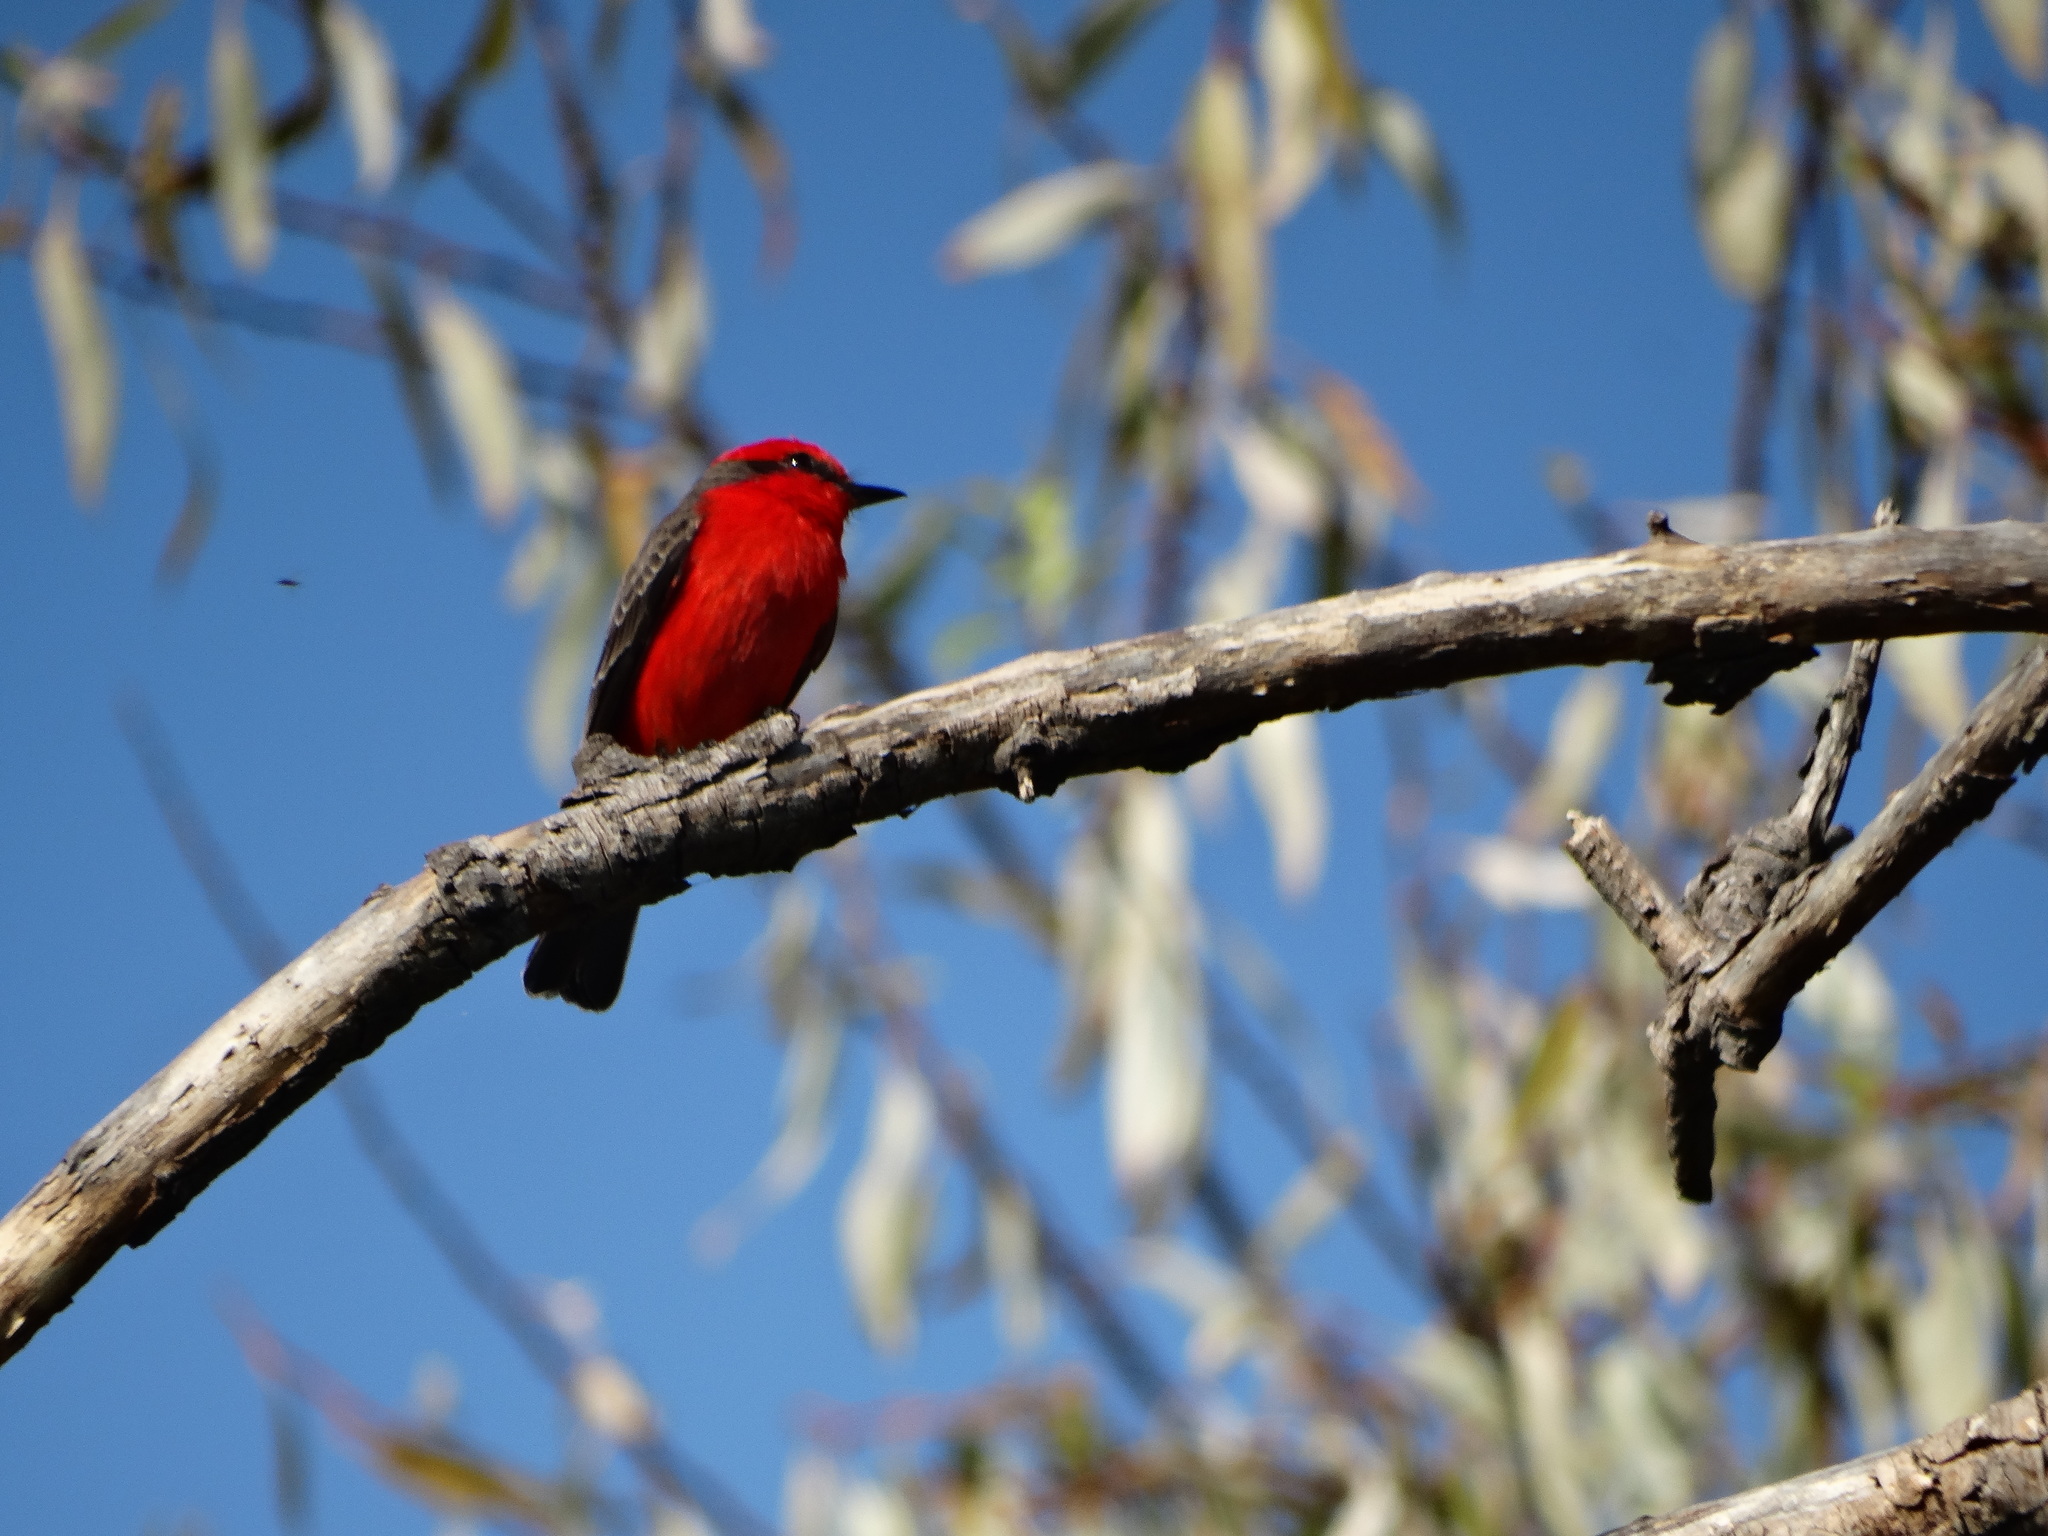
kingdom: Animalia
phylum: Chordata
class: Aves
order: Passeriformes
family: Tyrannidae
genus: Pyrocephalus
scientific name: Pyrocephalus rubinus
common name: Vermilion flycatcher
